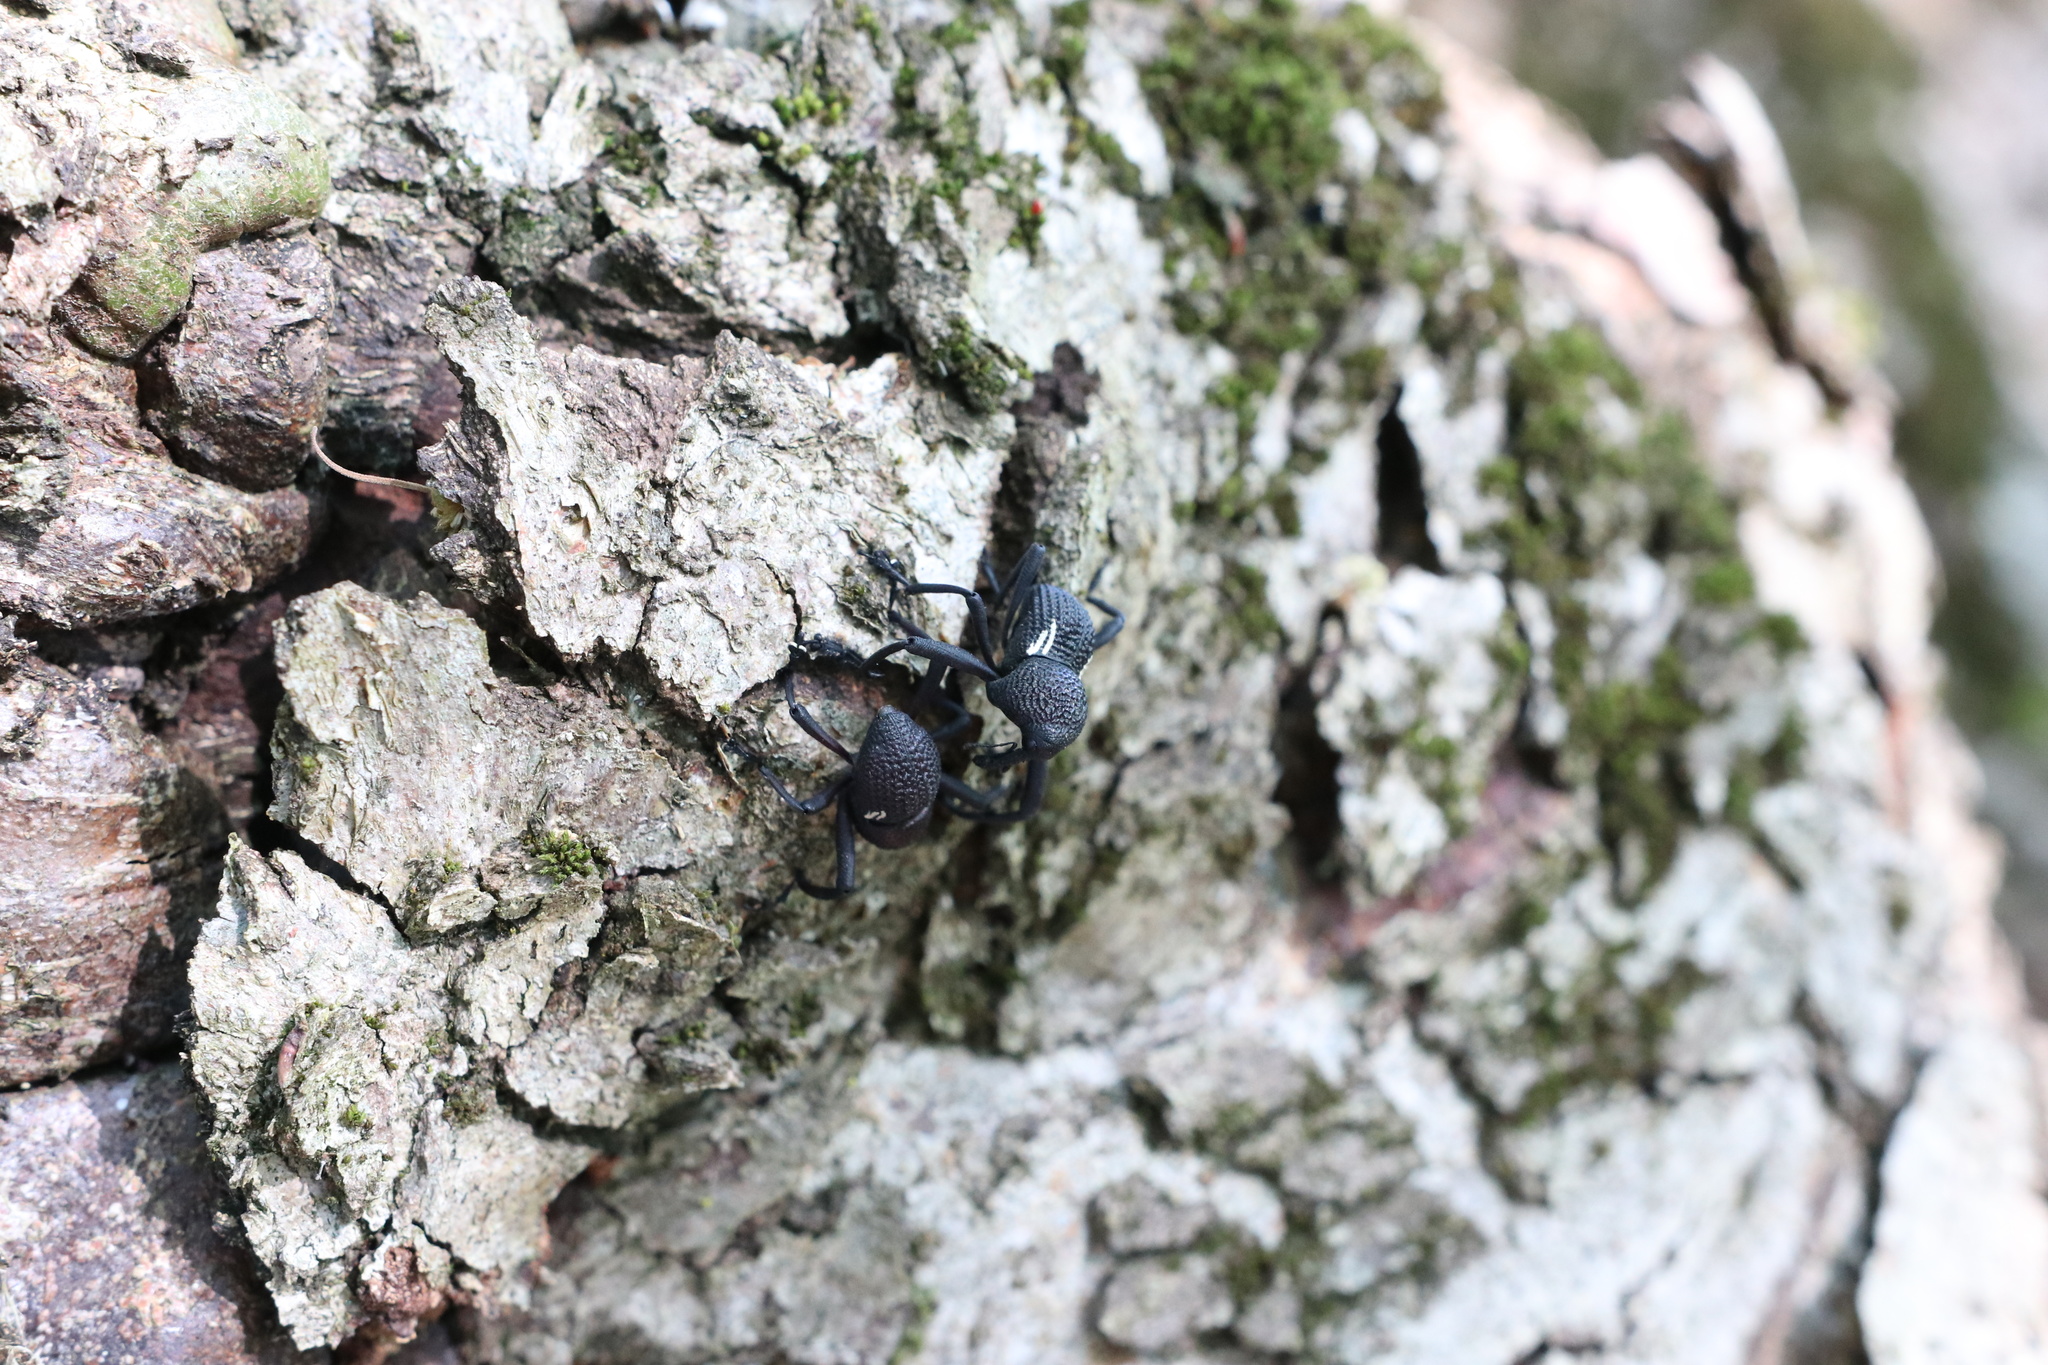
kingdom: Animalia
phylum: Arthropoda
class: Insecta
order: Coleoptera
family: Curculionidae
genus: Rhyephenes
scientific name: Rhyephenes humeralis
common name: Araè±ita chilena del pino
